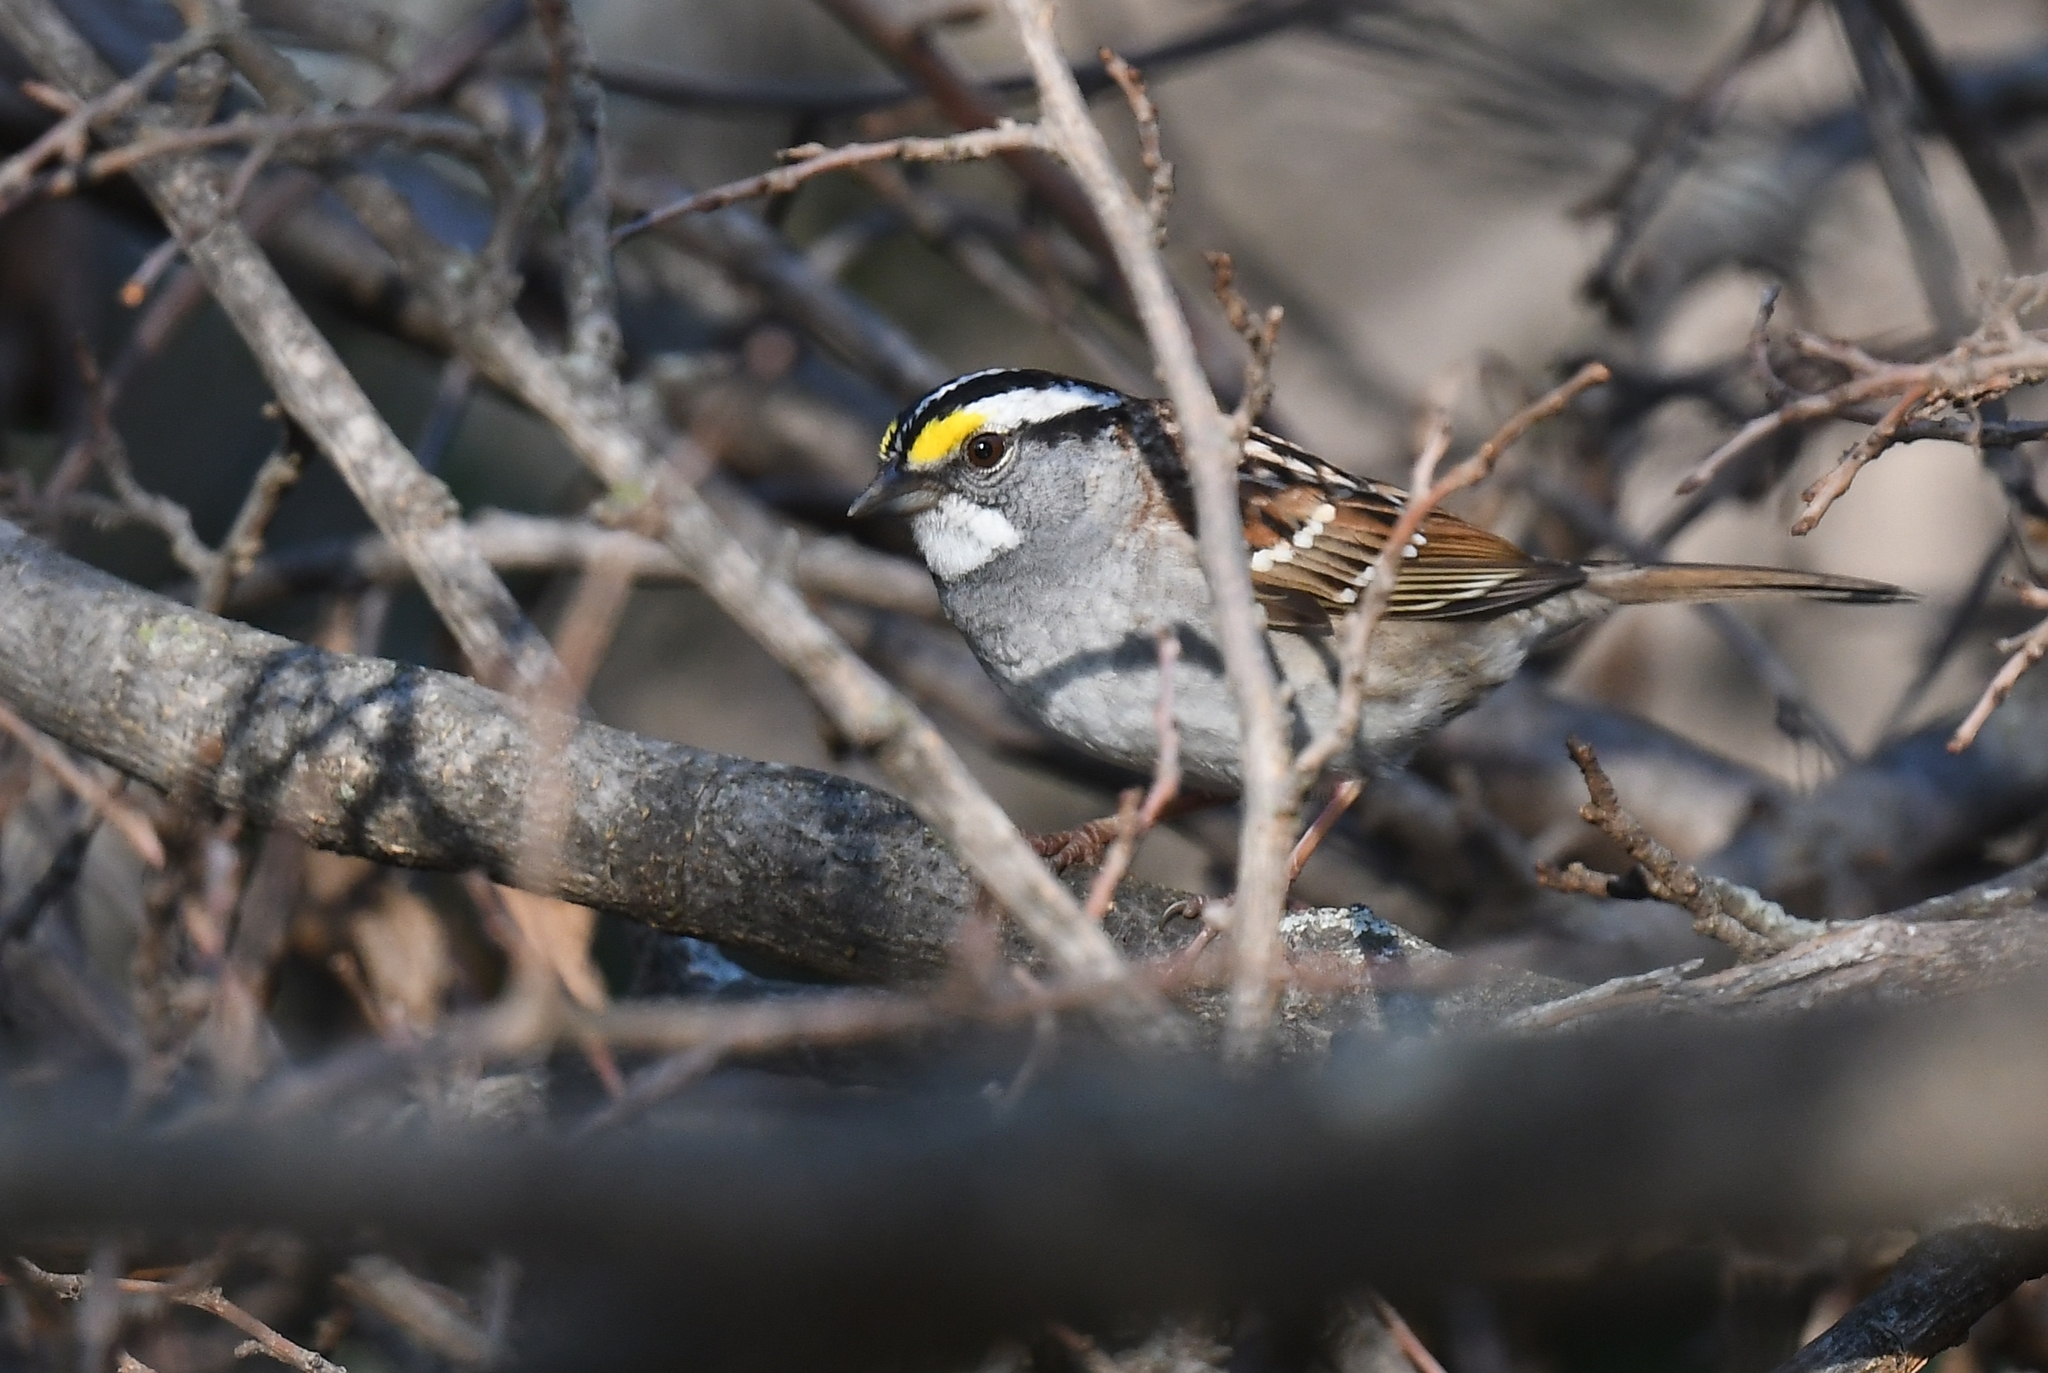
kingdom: Animalia
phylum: Chordata
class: Aves
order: Passeriformes
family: Passerellidae
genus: Zonotrichia
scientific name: Zonotrichia albicollis
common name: White-throated sparrow
